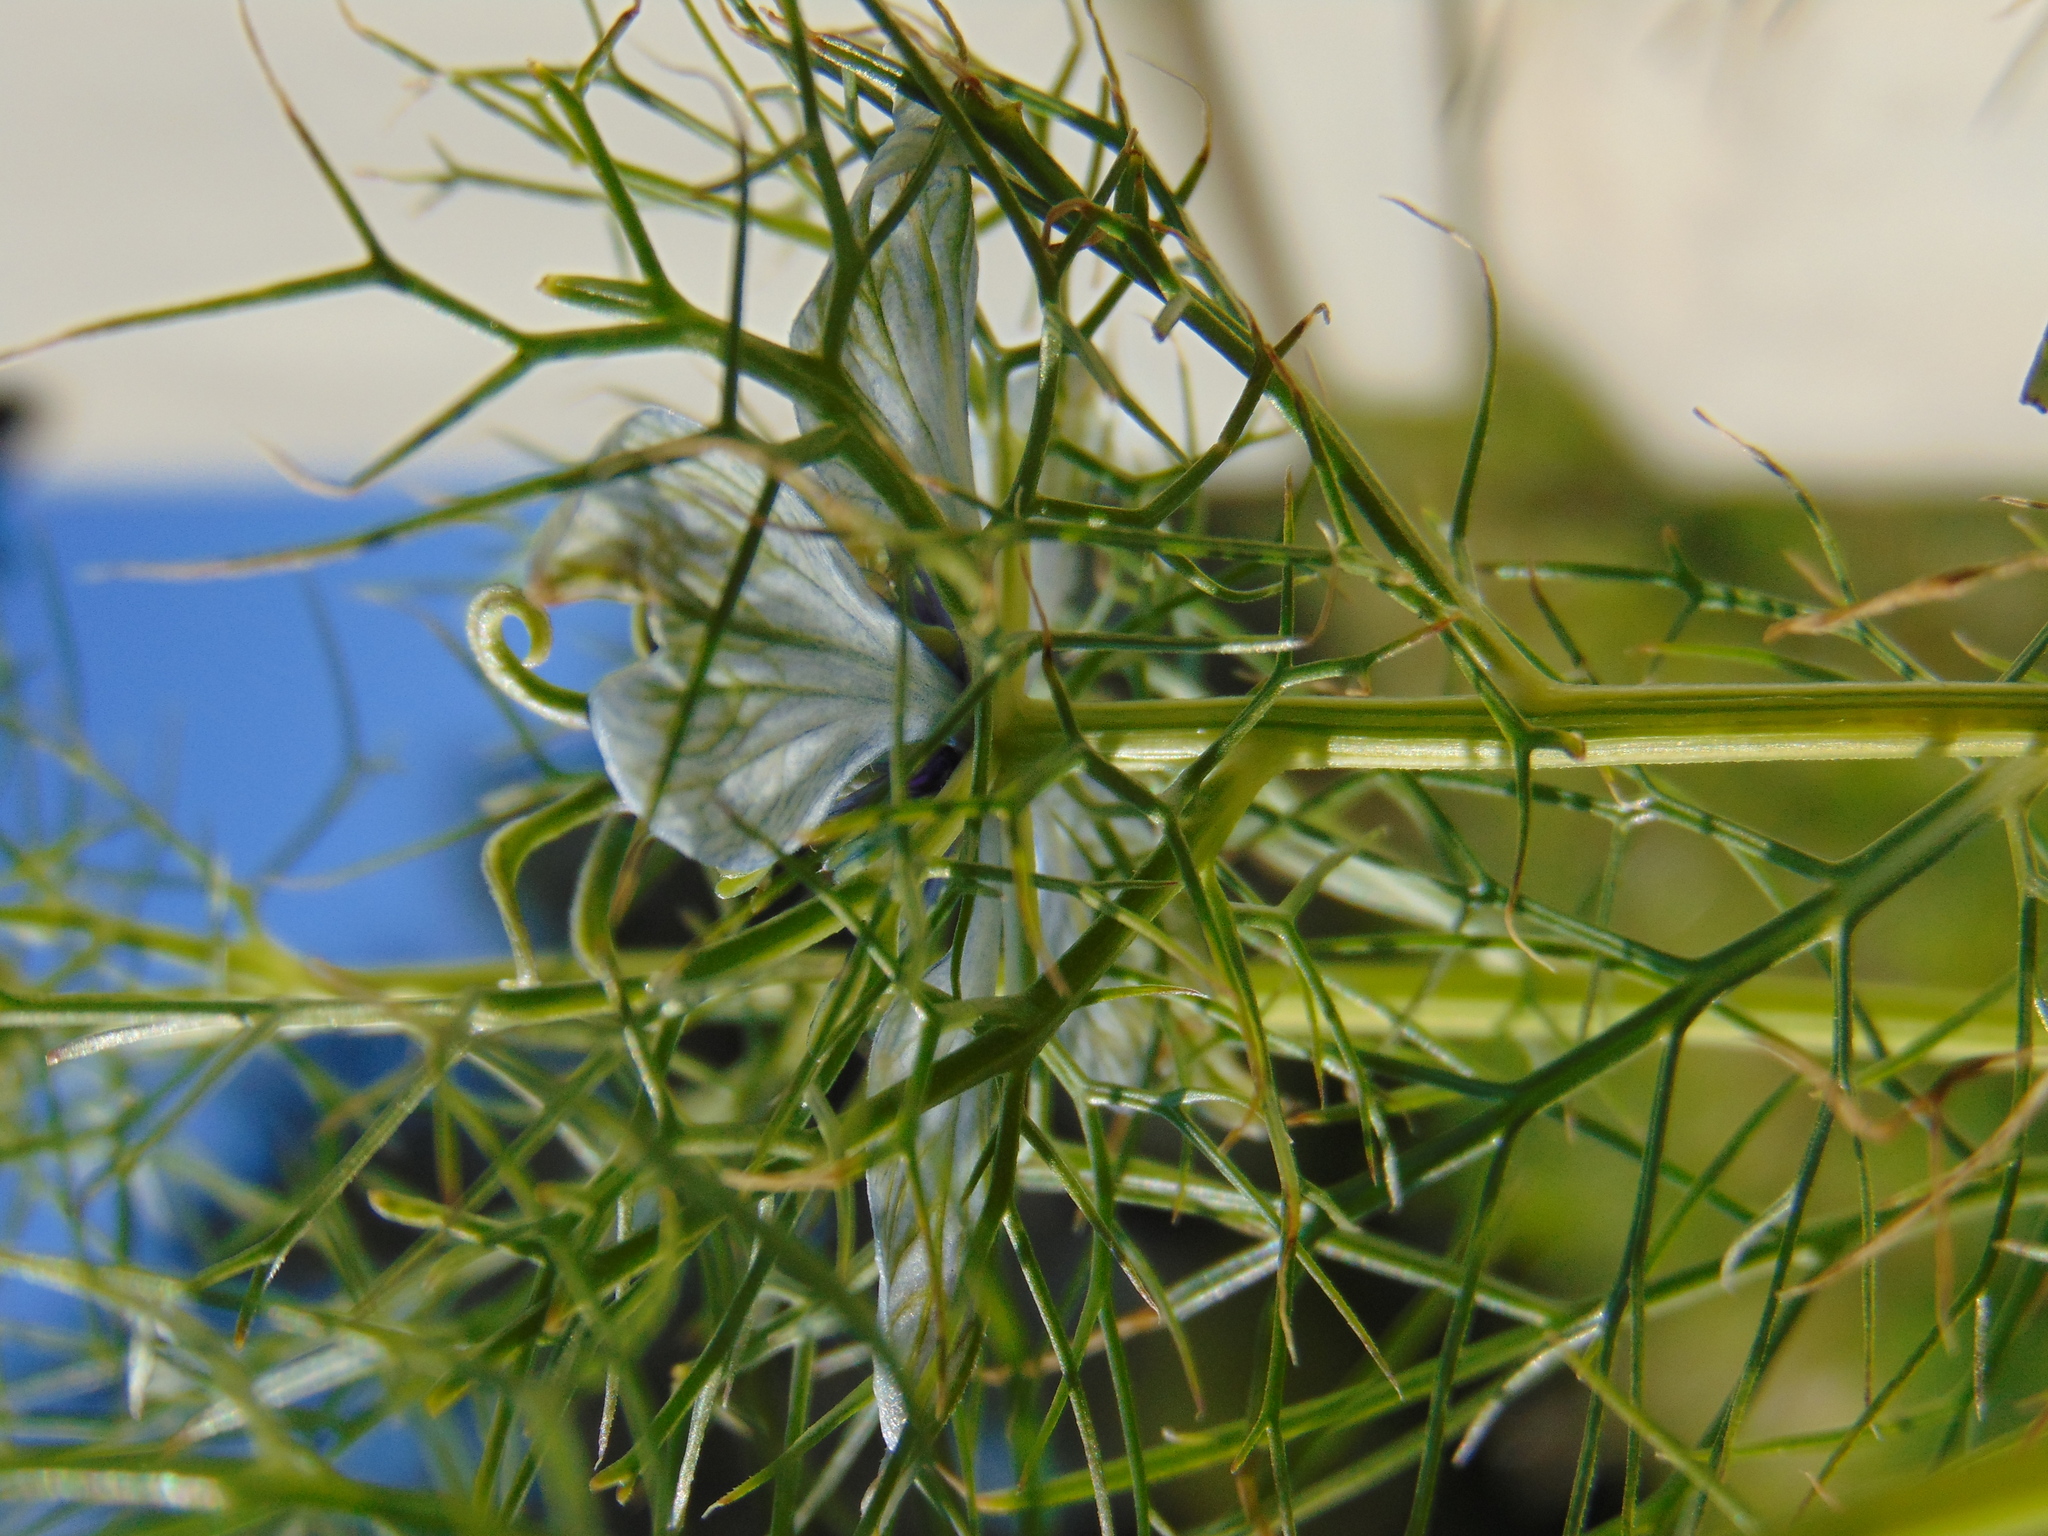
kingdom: Plantae
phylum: Tracheophyta
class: Magnoliopsida
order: Ranunculales
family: Ranunculaceae
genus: Nigella
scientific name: Nigella damascena
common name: Love-in-a-mist
